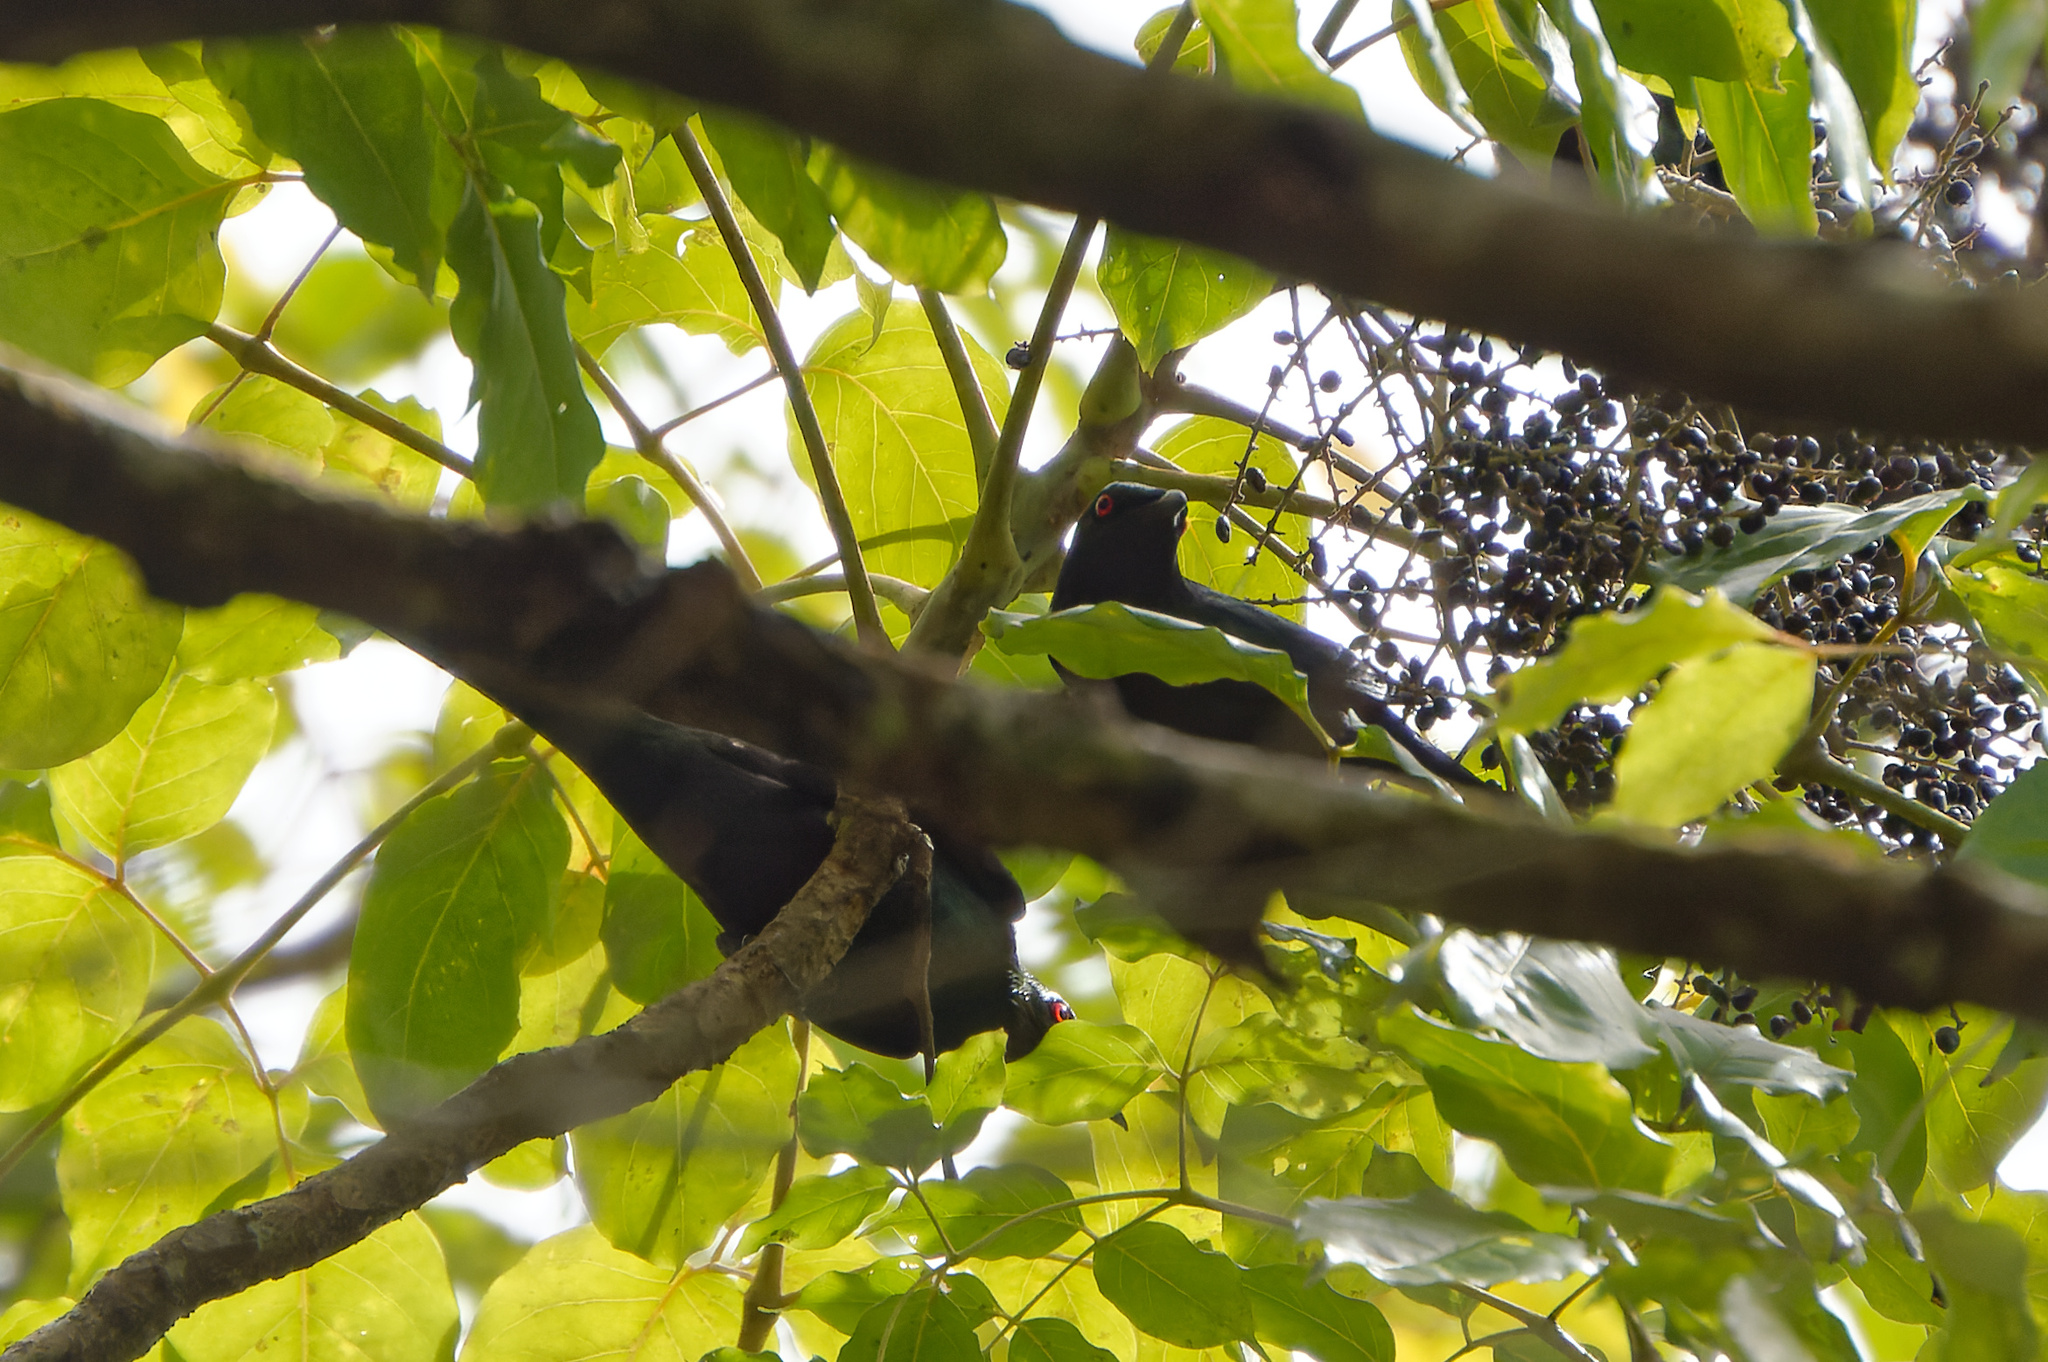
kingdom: Animalia
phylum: Chordata
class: Aves
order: Passeriformes
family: Sturnidae
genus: Aplonis
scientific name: Aplonis metallica
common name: Metallic starling
